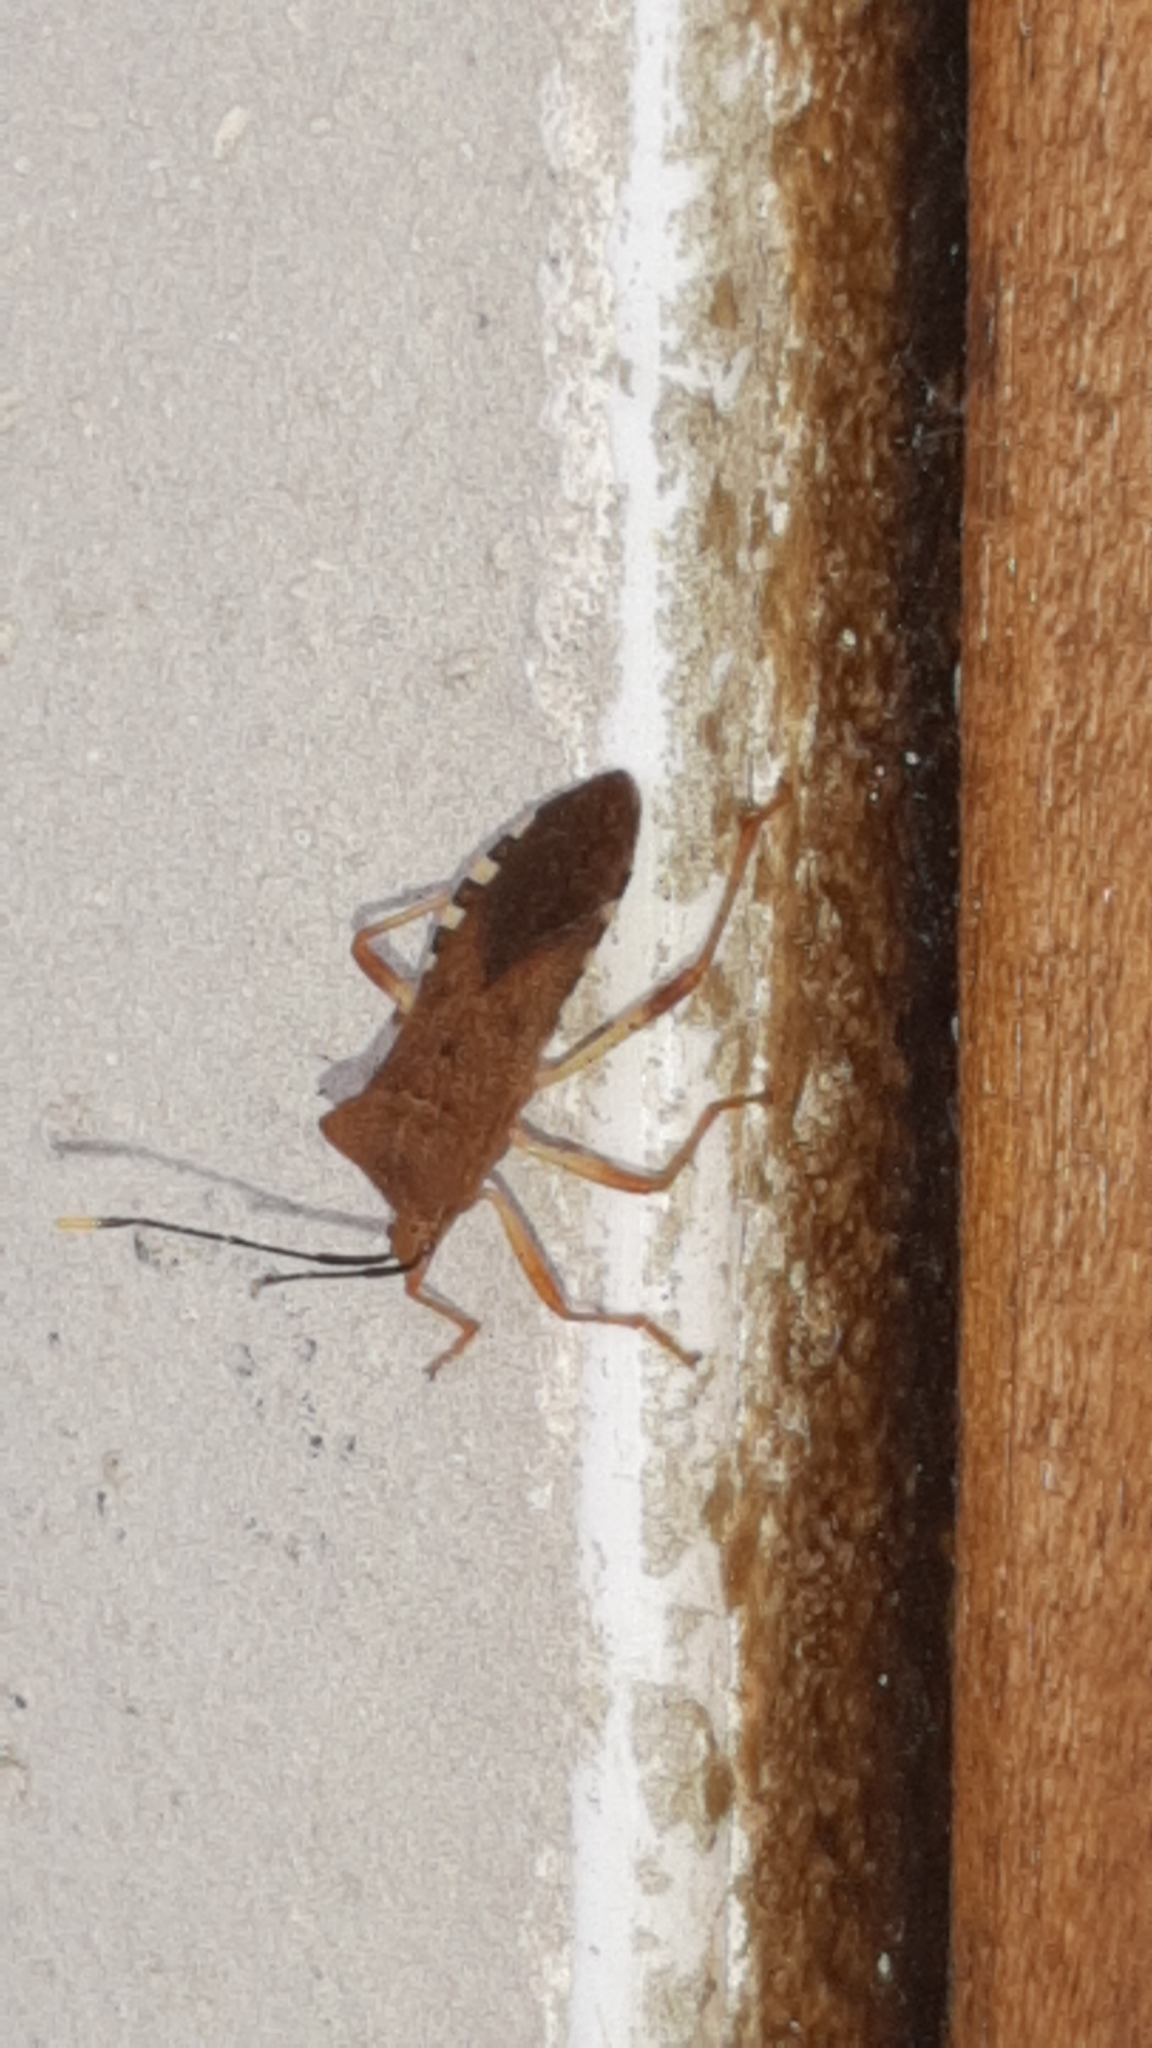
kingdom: Animalia
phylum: Arthropoda
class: Insecta
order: Hemiptera
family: Coreidae
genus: Anasa
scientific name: Anasa delibata
